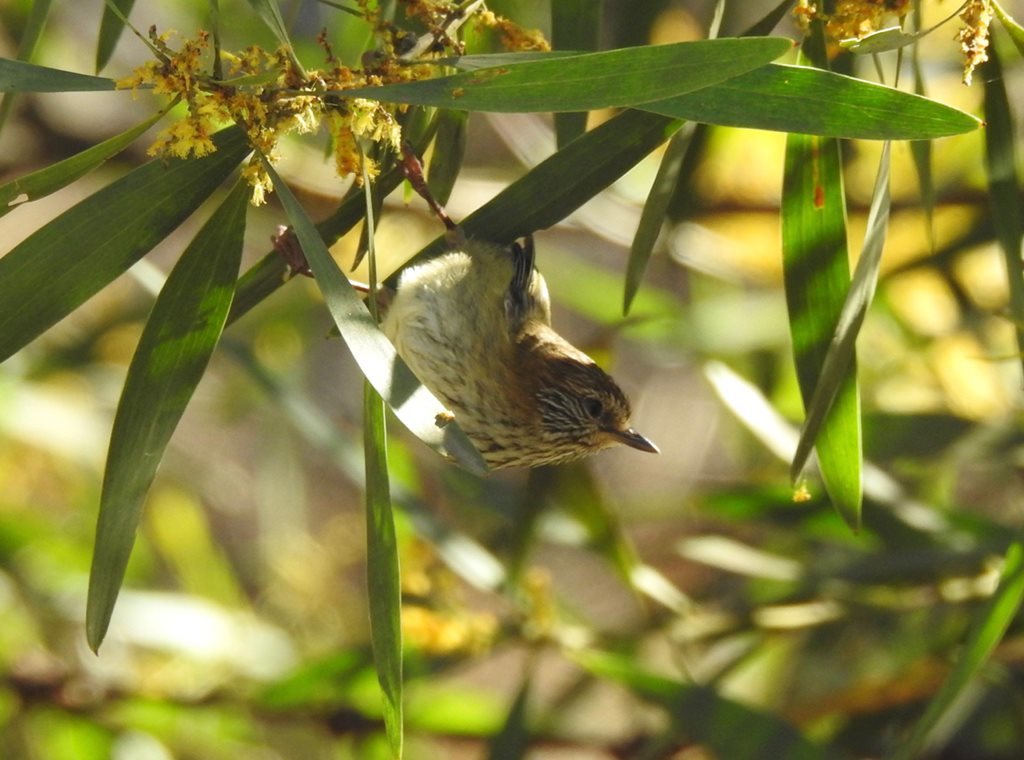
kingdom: Animalia
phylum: Chordata
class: Aves
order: Passeriformes
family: Acanthizidae
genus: Acanthiza
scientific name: Acanthiza lineata
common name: Striated thornbill
